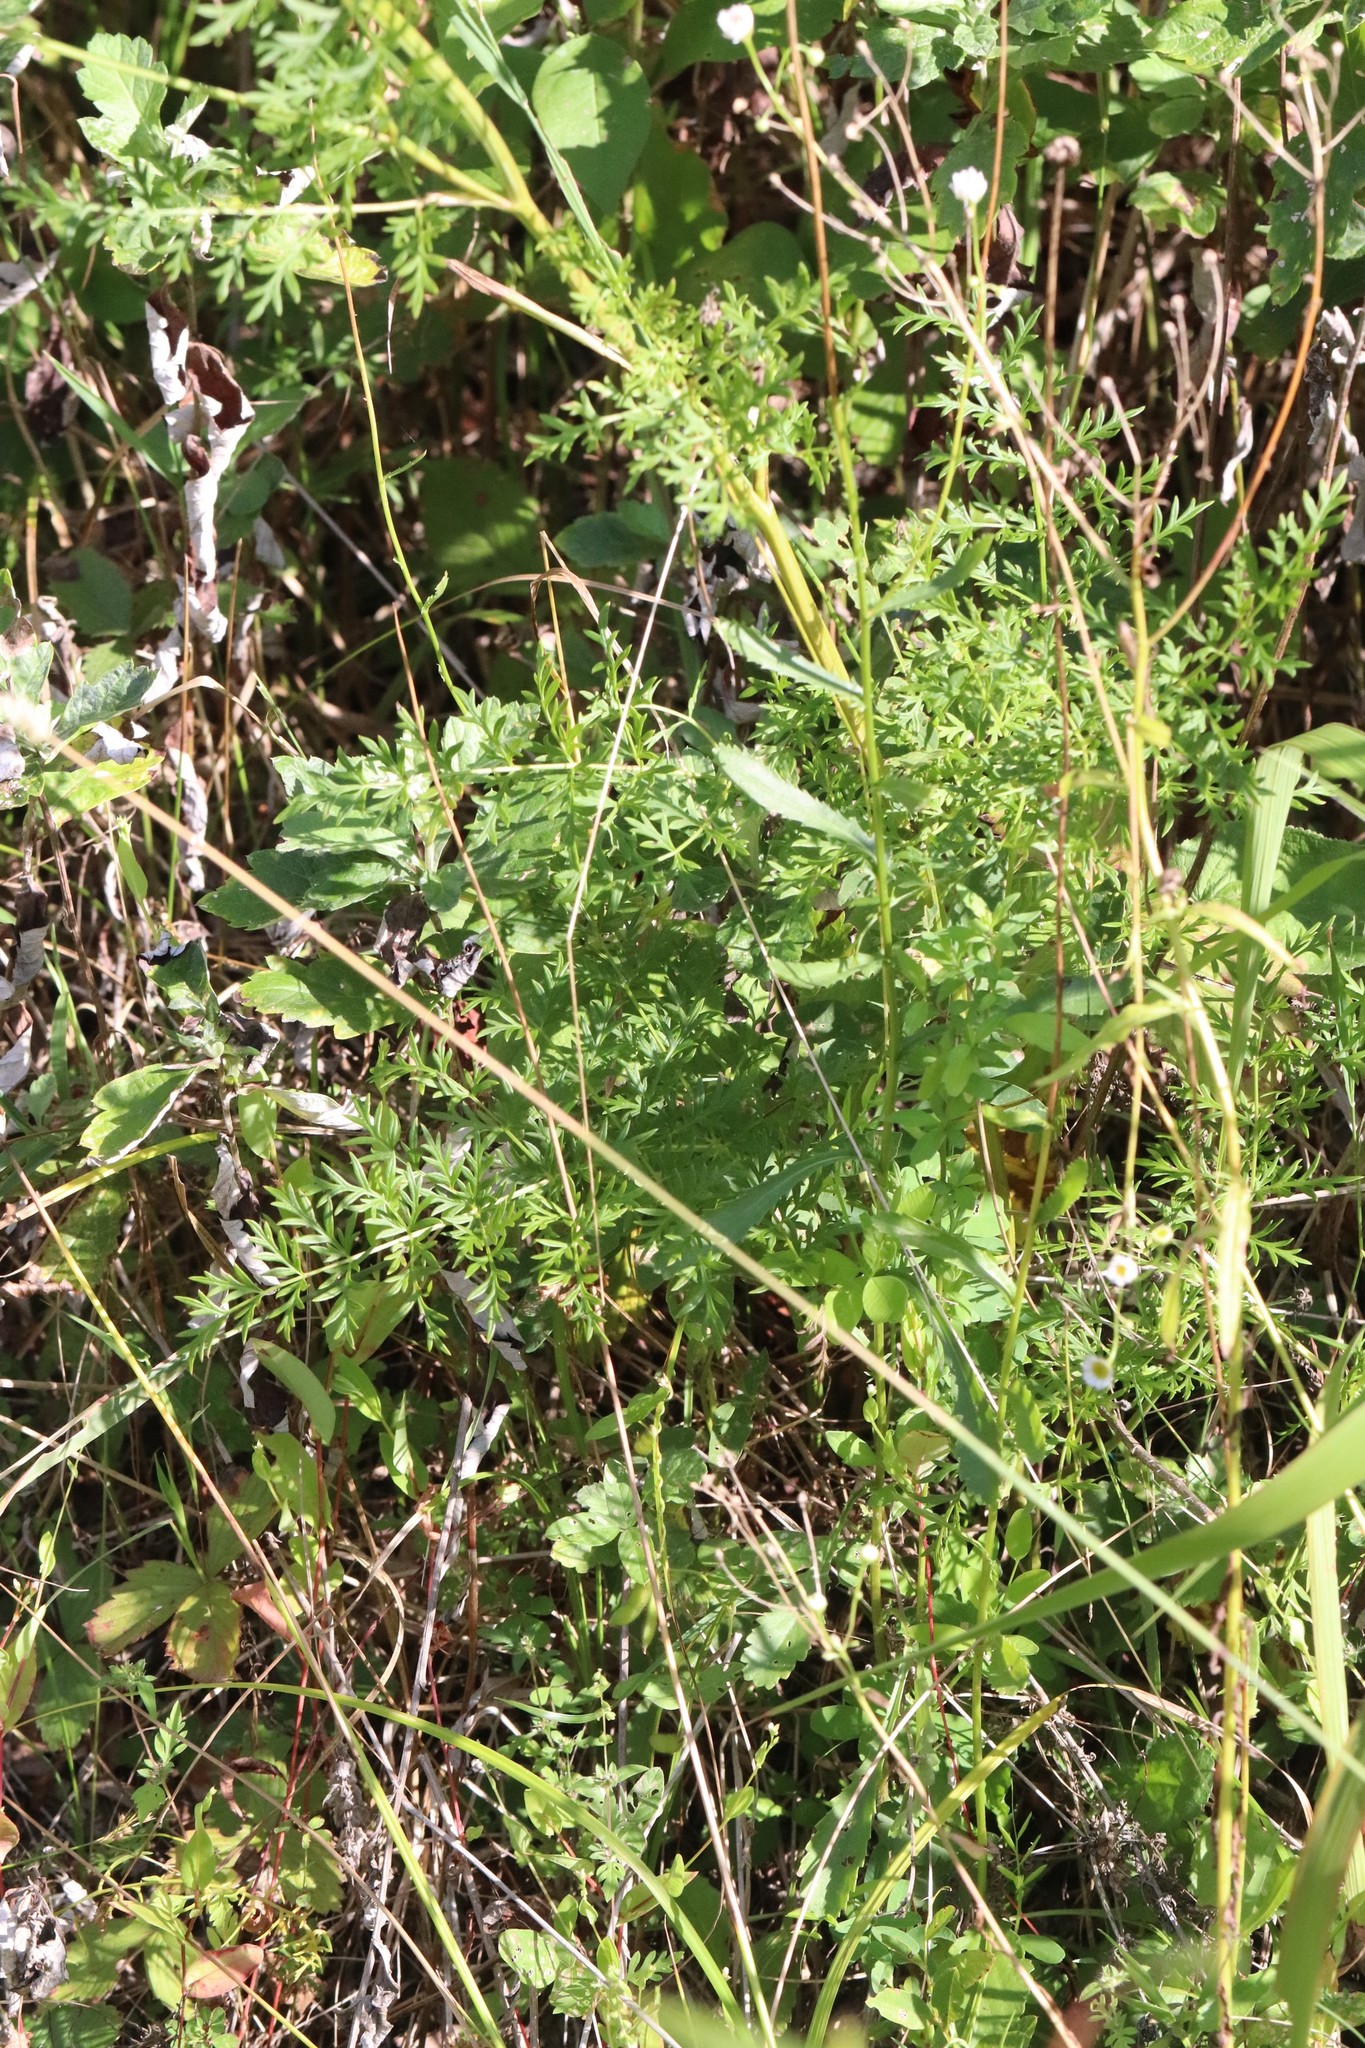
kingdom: Plantae
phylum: Tracheophyta
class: Magnoliopsida
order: Apiales
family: Apiaceae
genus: Seseli
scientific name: Seseli seseloides
